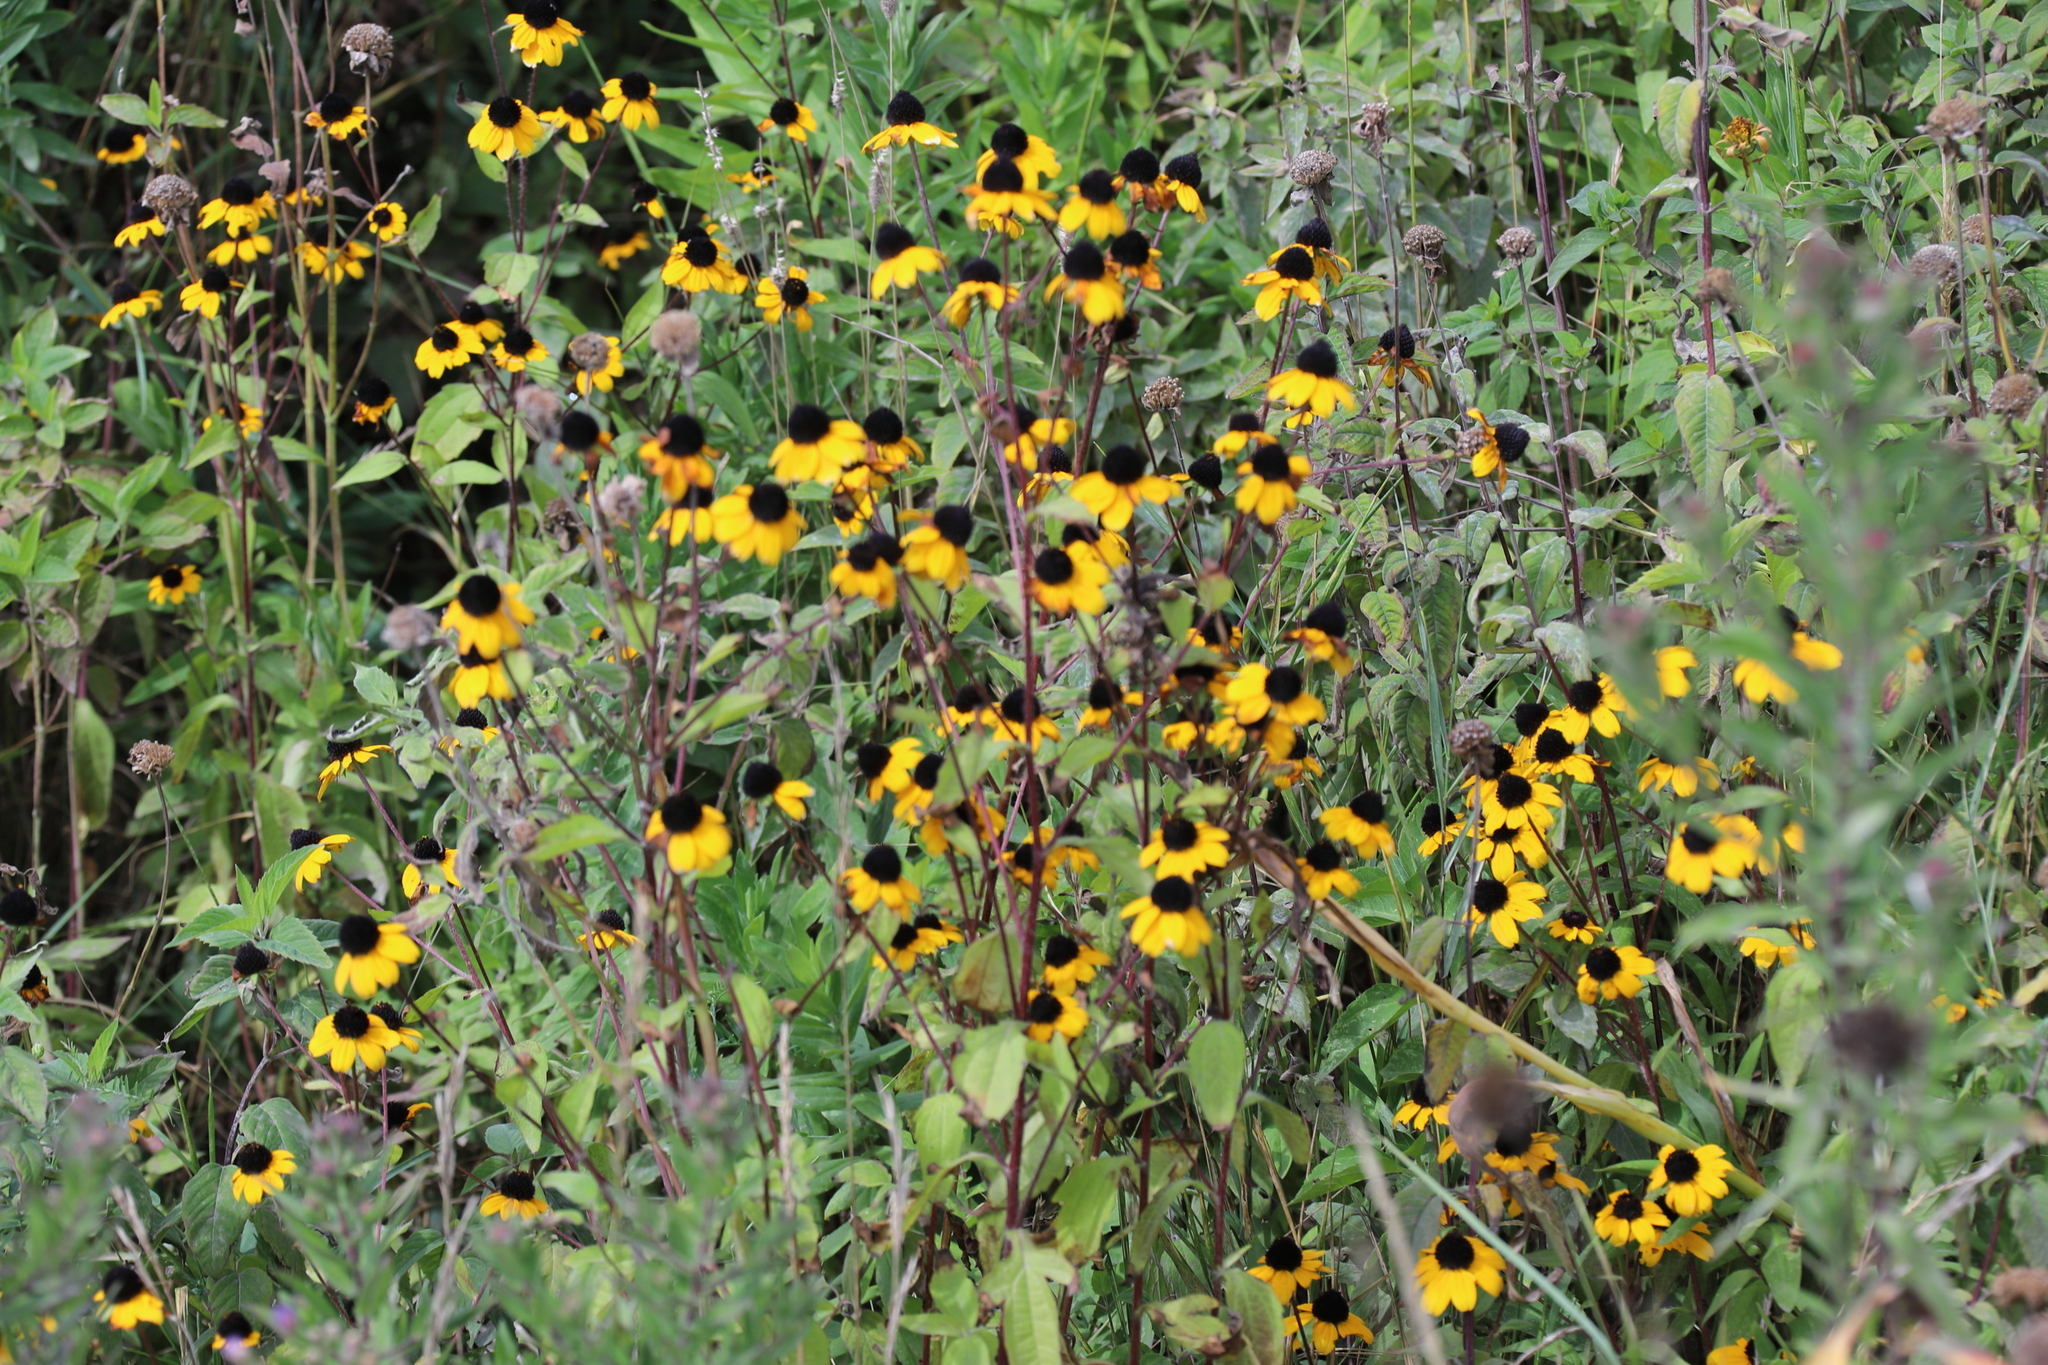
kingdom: Plantae
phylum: Tracheophyta
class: Magnoliopsida
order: Asterales
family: Asteraceae
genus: Rudbeckia
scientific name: Rudbeckia hirta
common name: Black-eyed-susan
